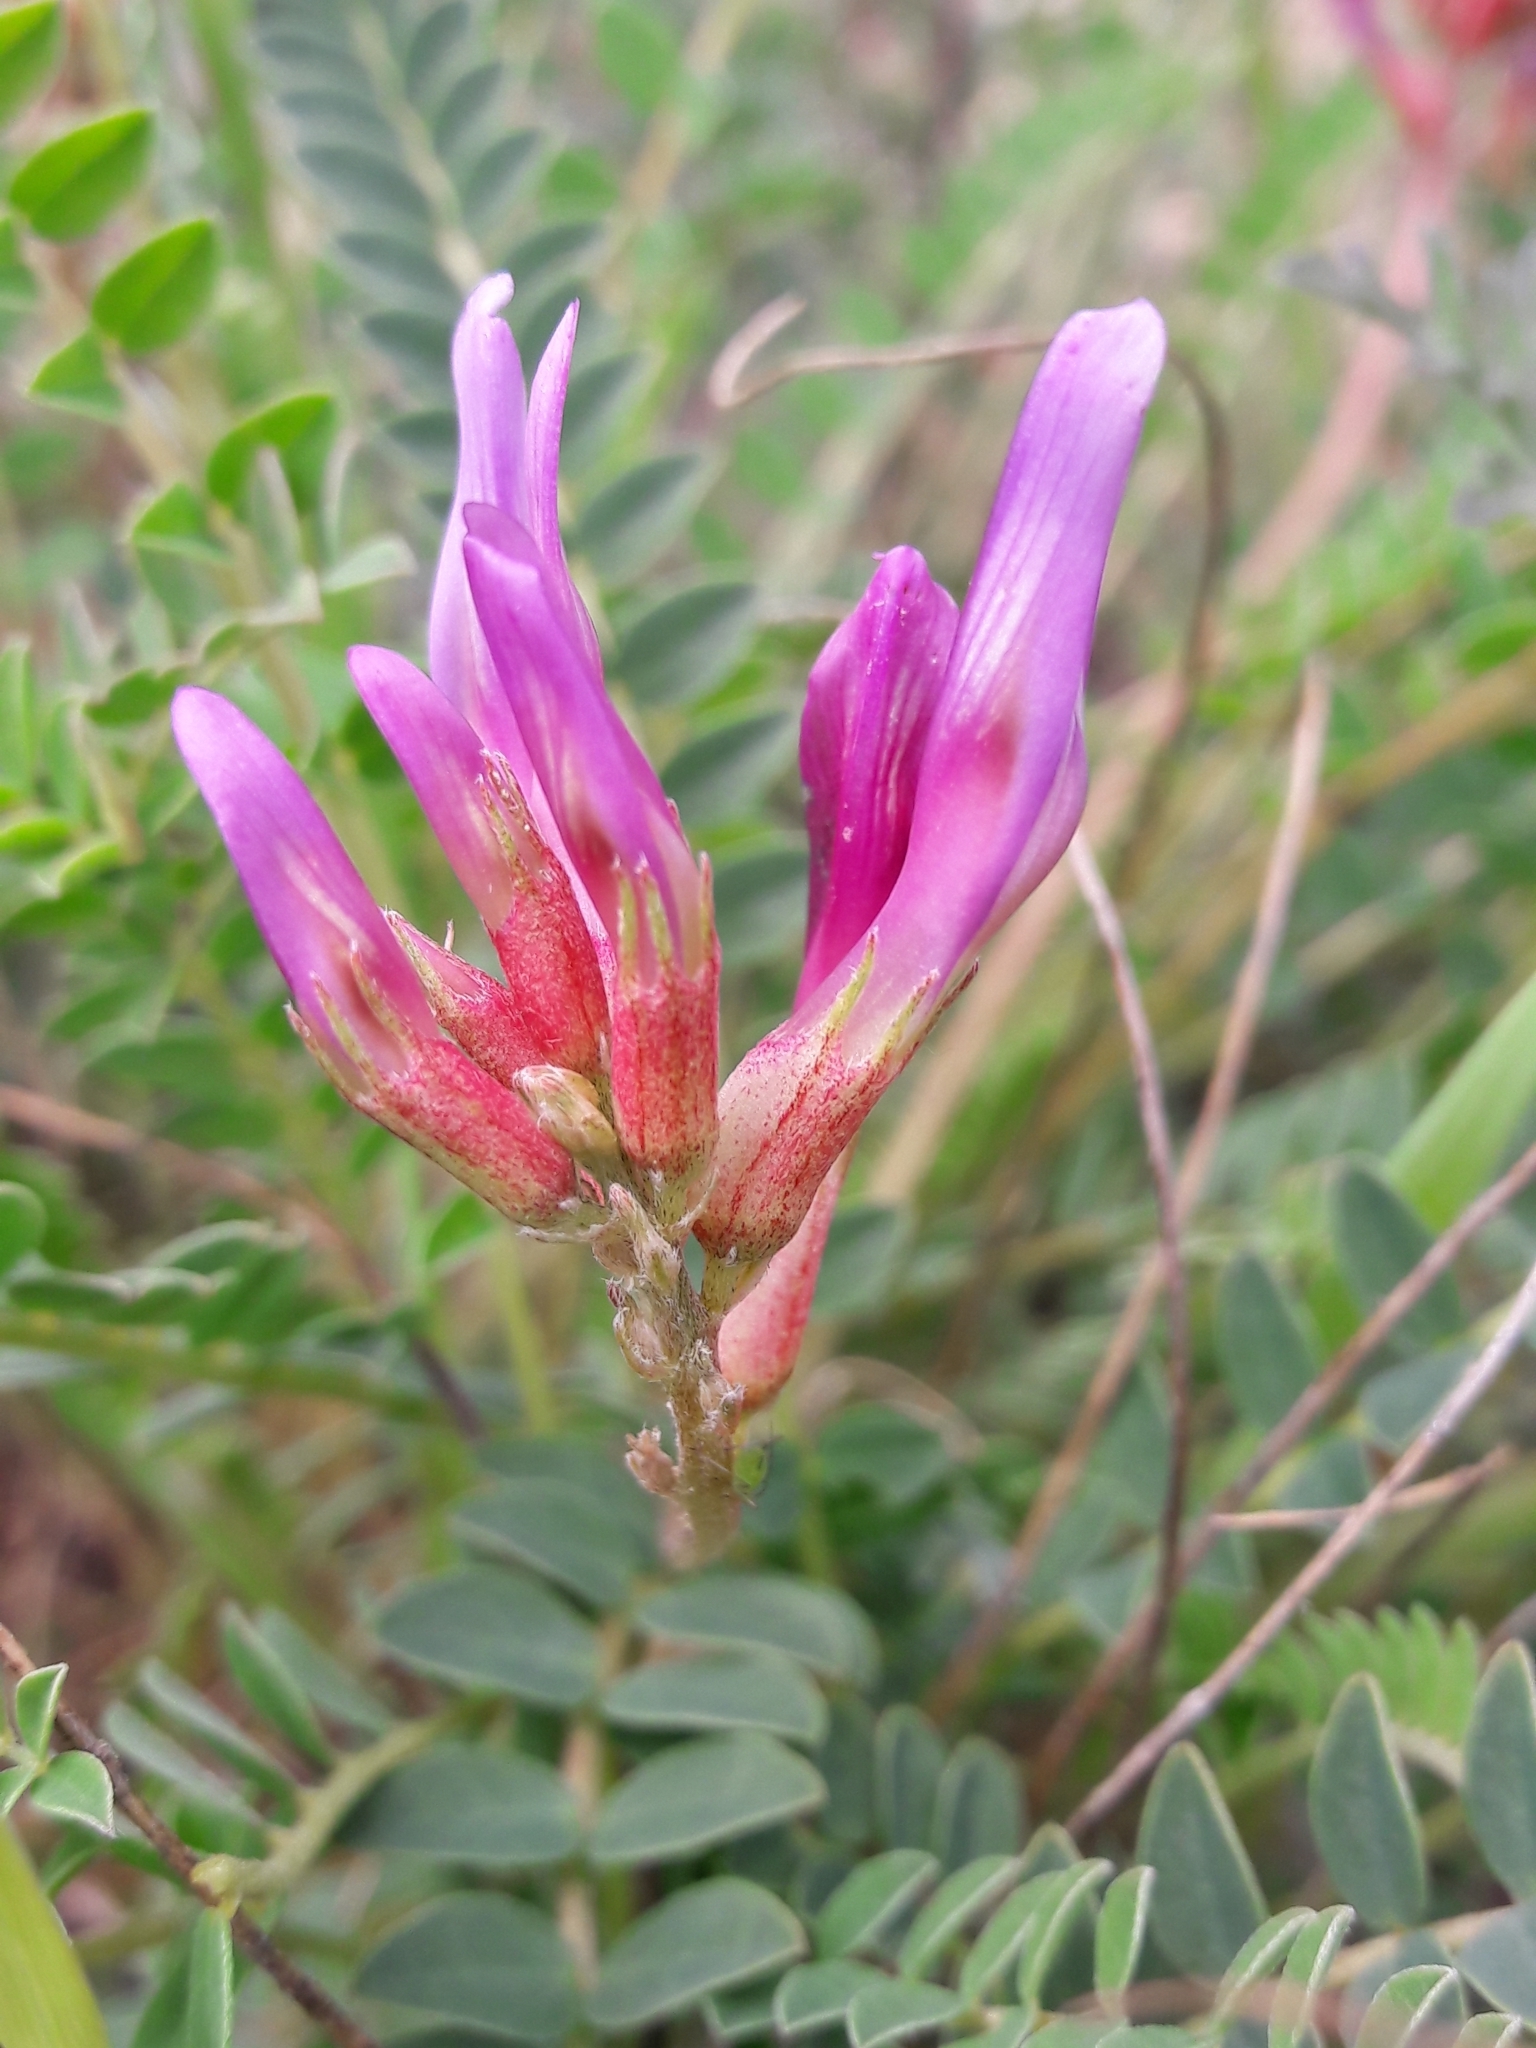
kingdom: Plantae
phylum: Tracheophyta
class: Magnoliopsida
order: Fabales
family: Fabaceae
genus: Astragalus
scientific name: Astragalus monspessulanus
